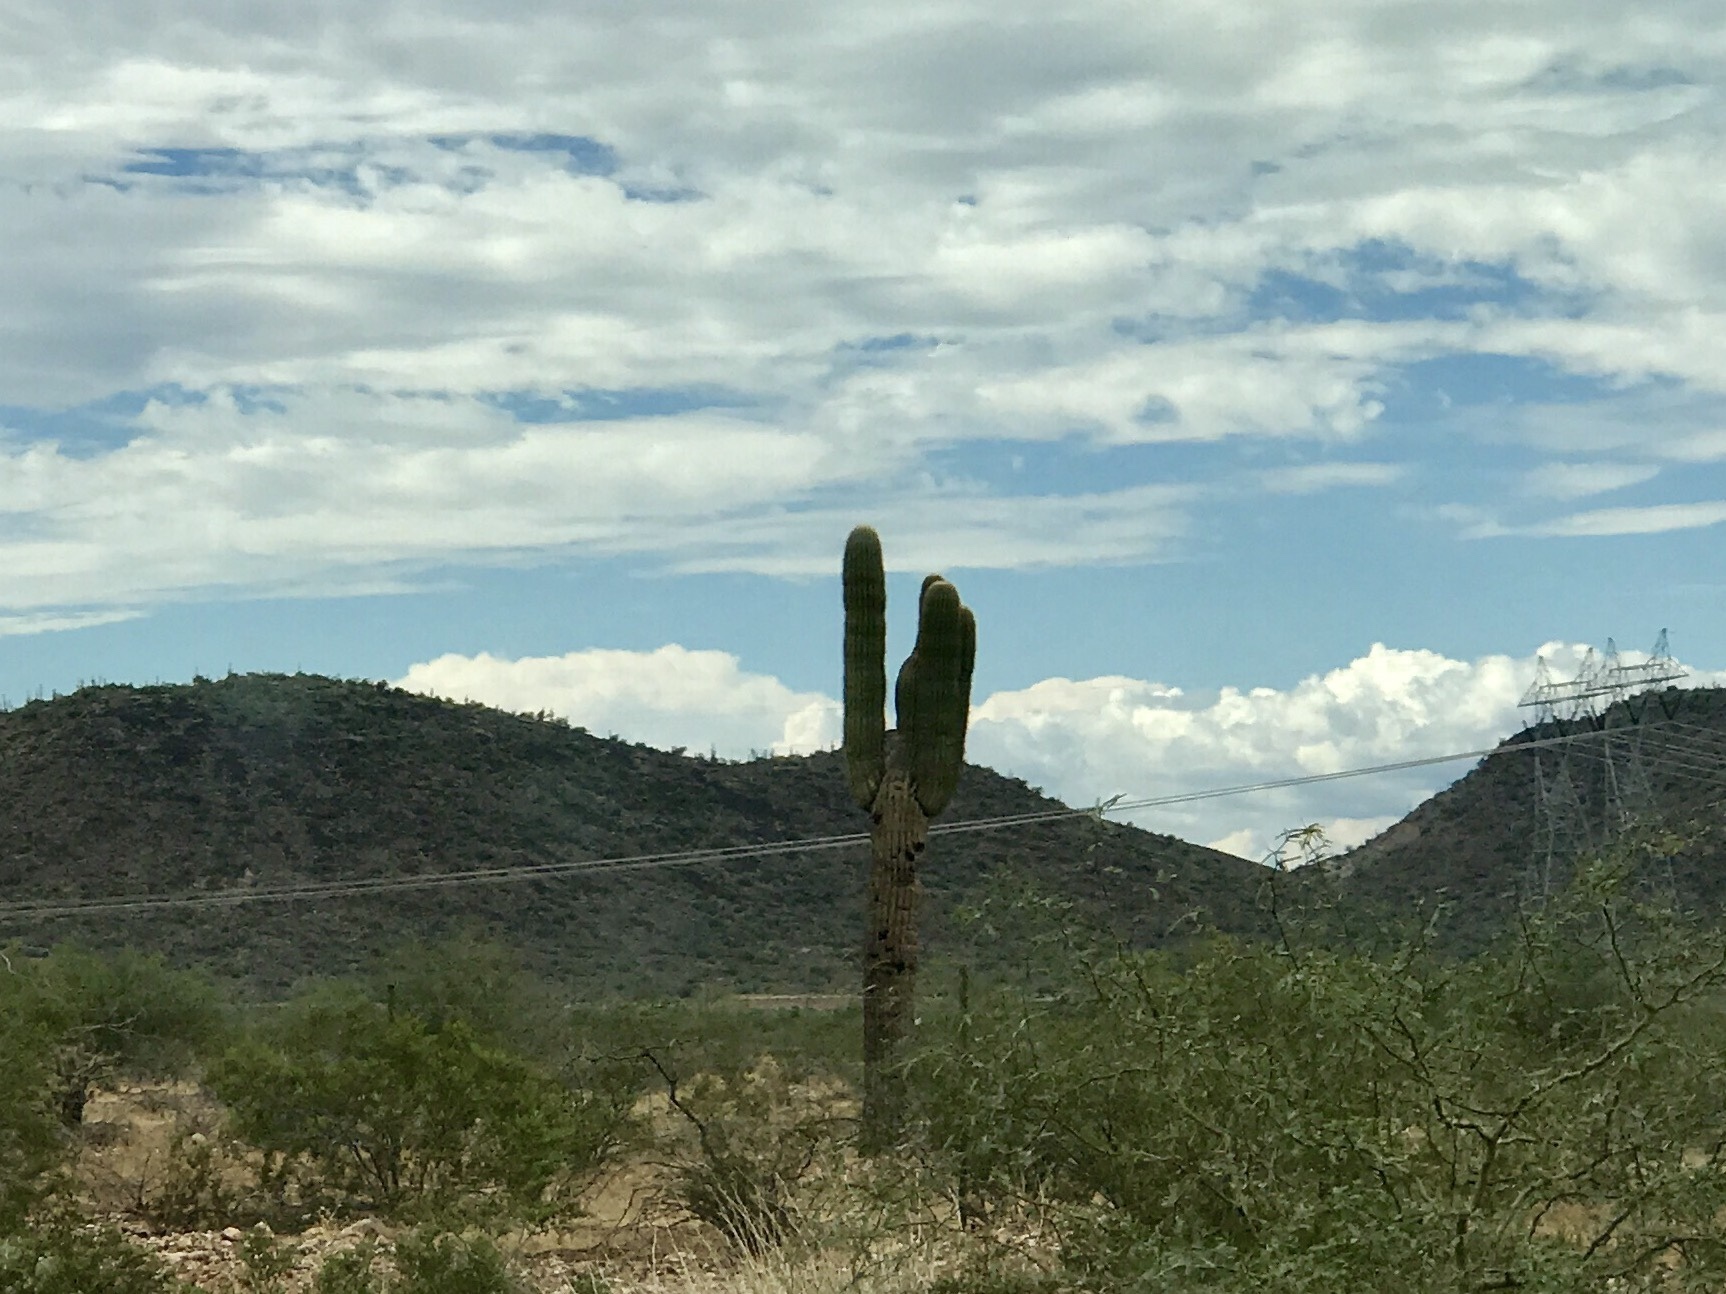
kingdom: Plantae
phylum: Tracheophyta
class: Magnoliopsida
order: Caryophyllales
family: Cactaceae
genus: Carnegiea
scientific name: Carnegiea gigantea
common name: Saguaro
